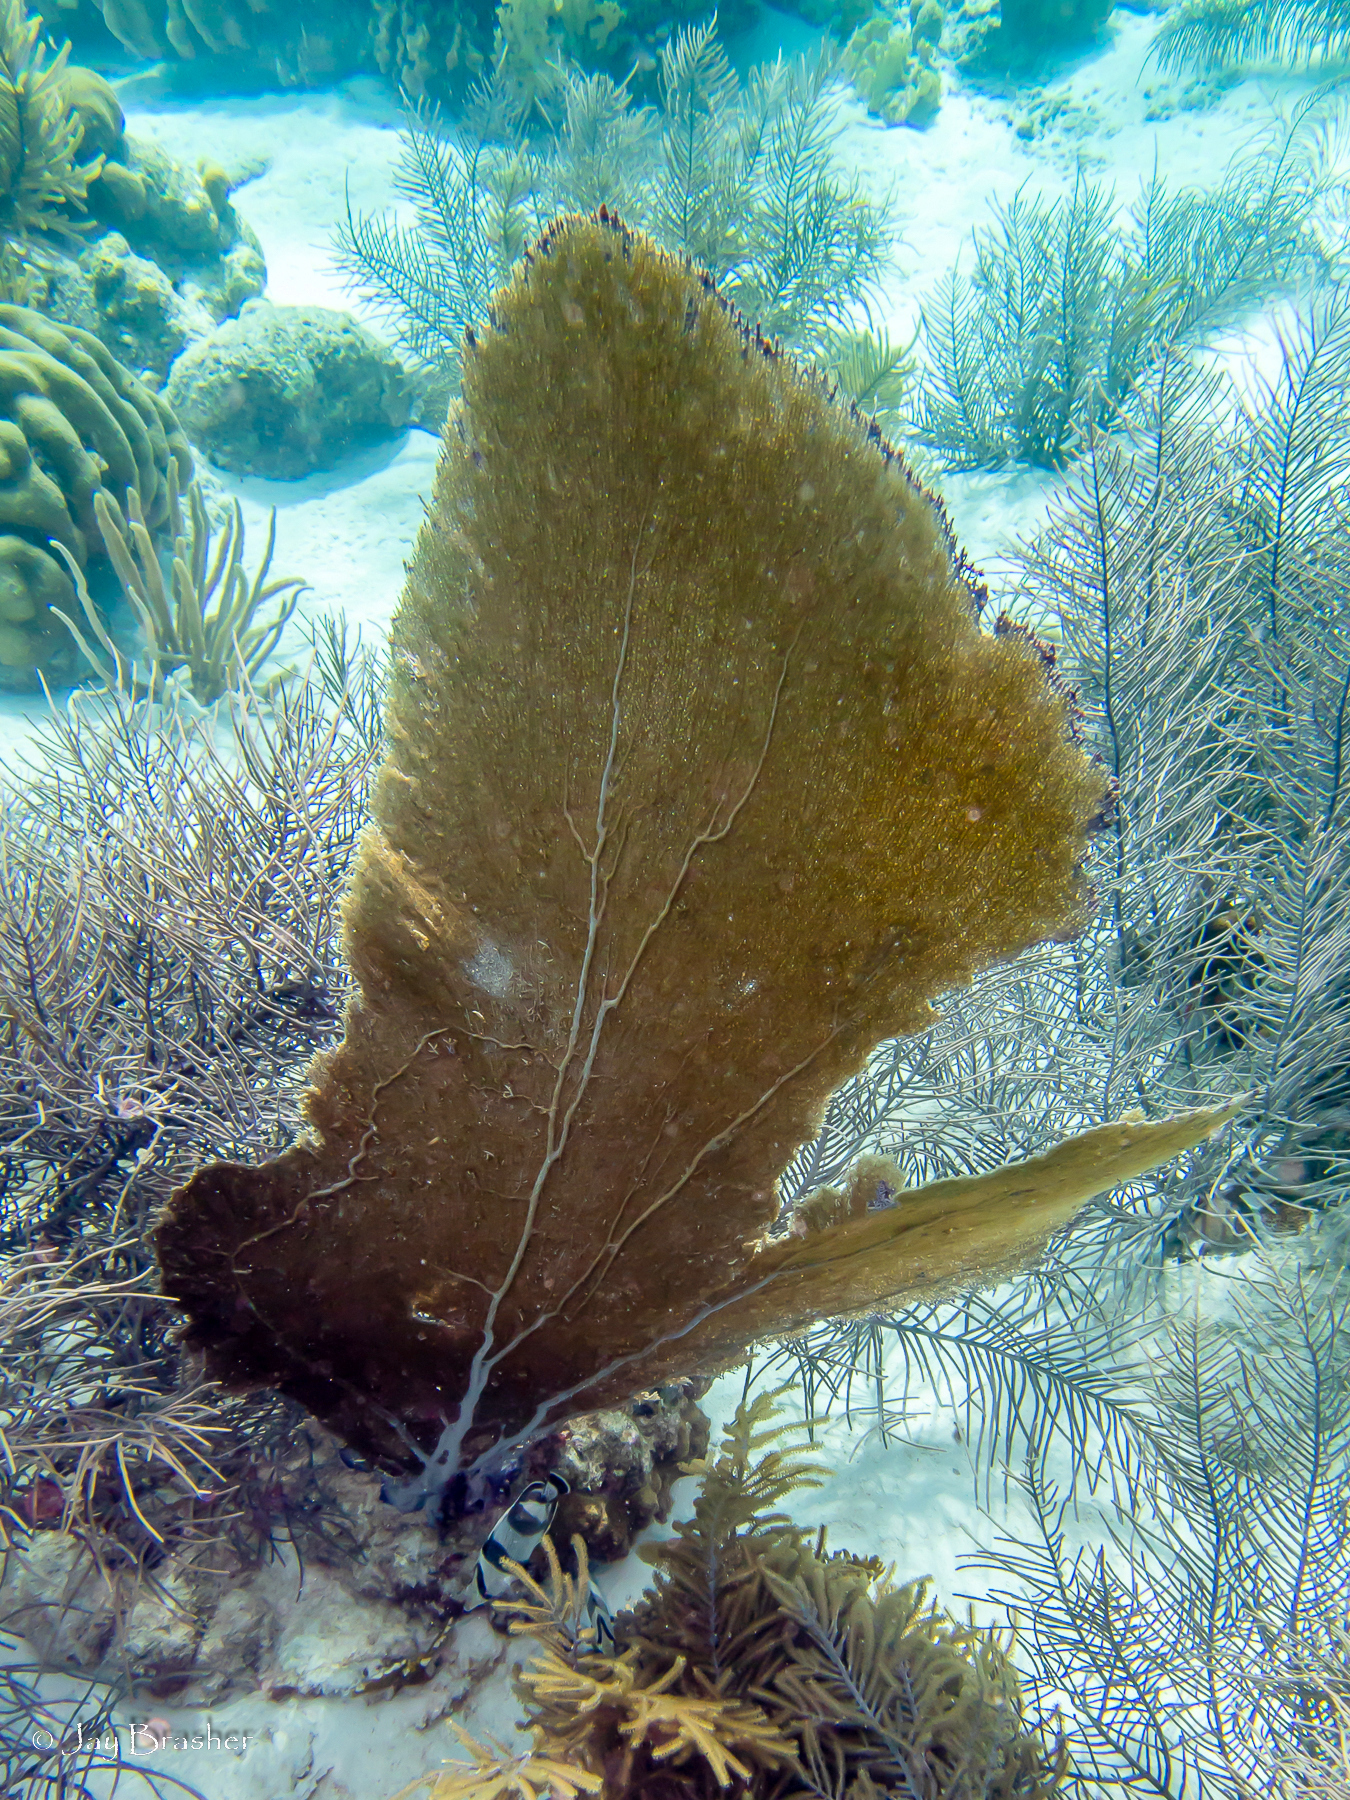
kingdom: Animalia
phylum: Cnidaria
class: Anthozoa
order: Malacalcyonacea
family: Gorgoniidae
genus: Gorgonia
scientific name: Gorgonia ventalina
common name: Common sea fan
